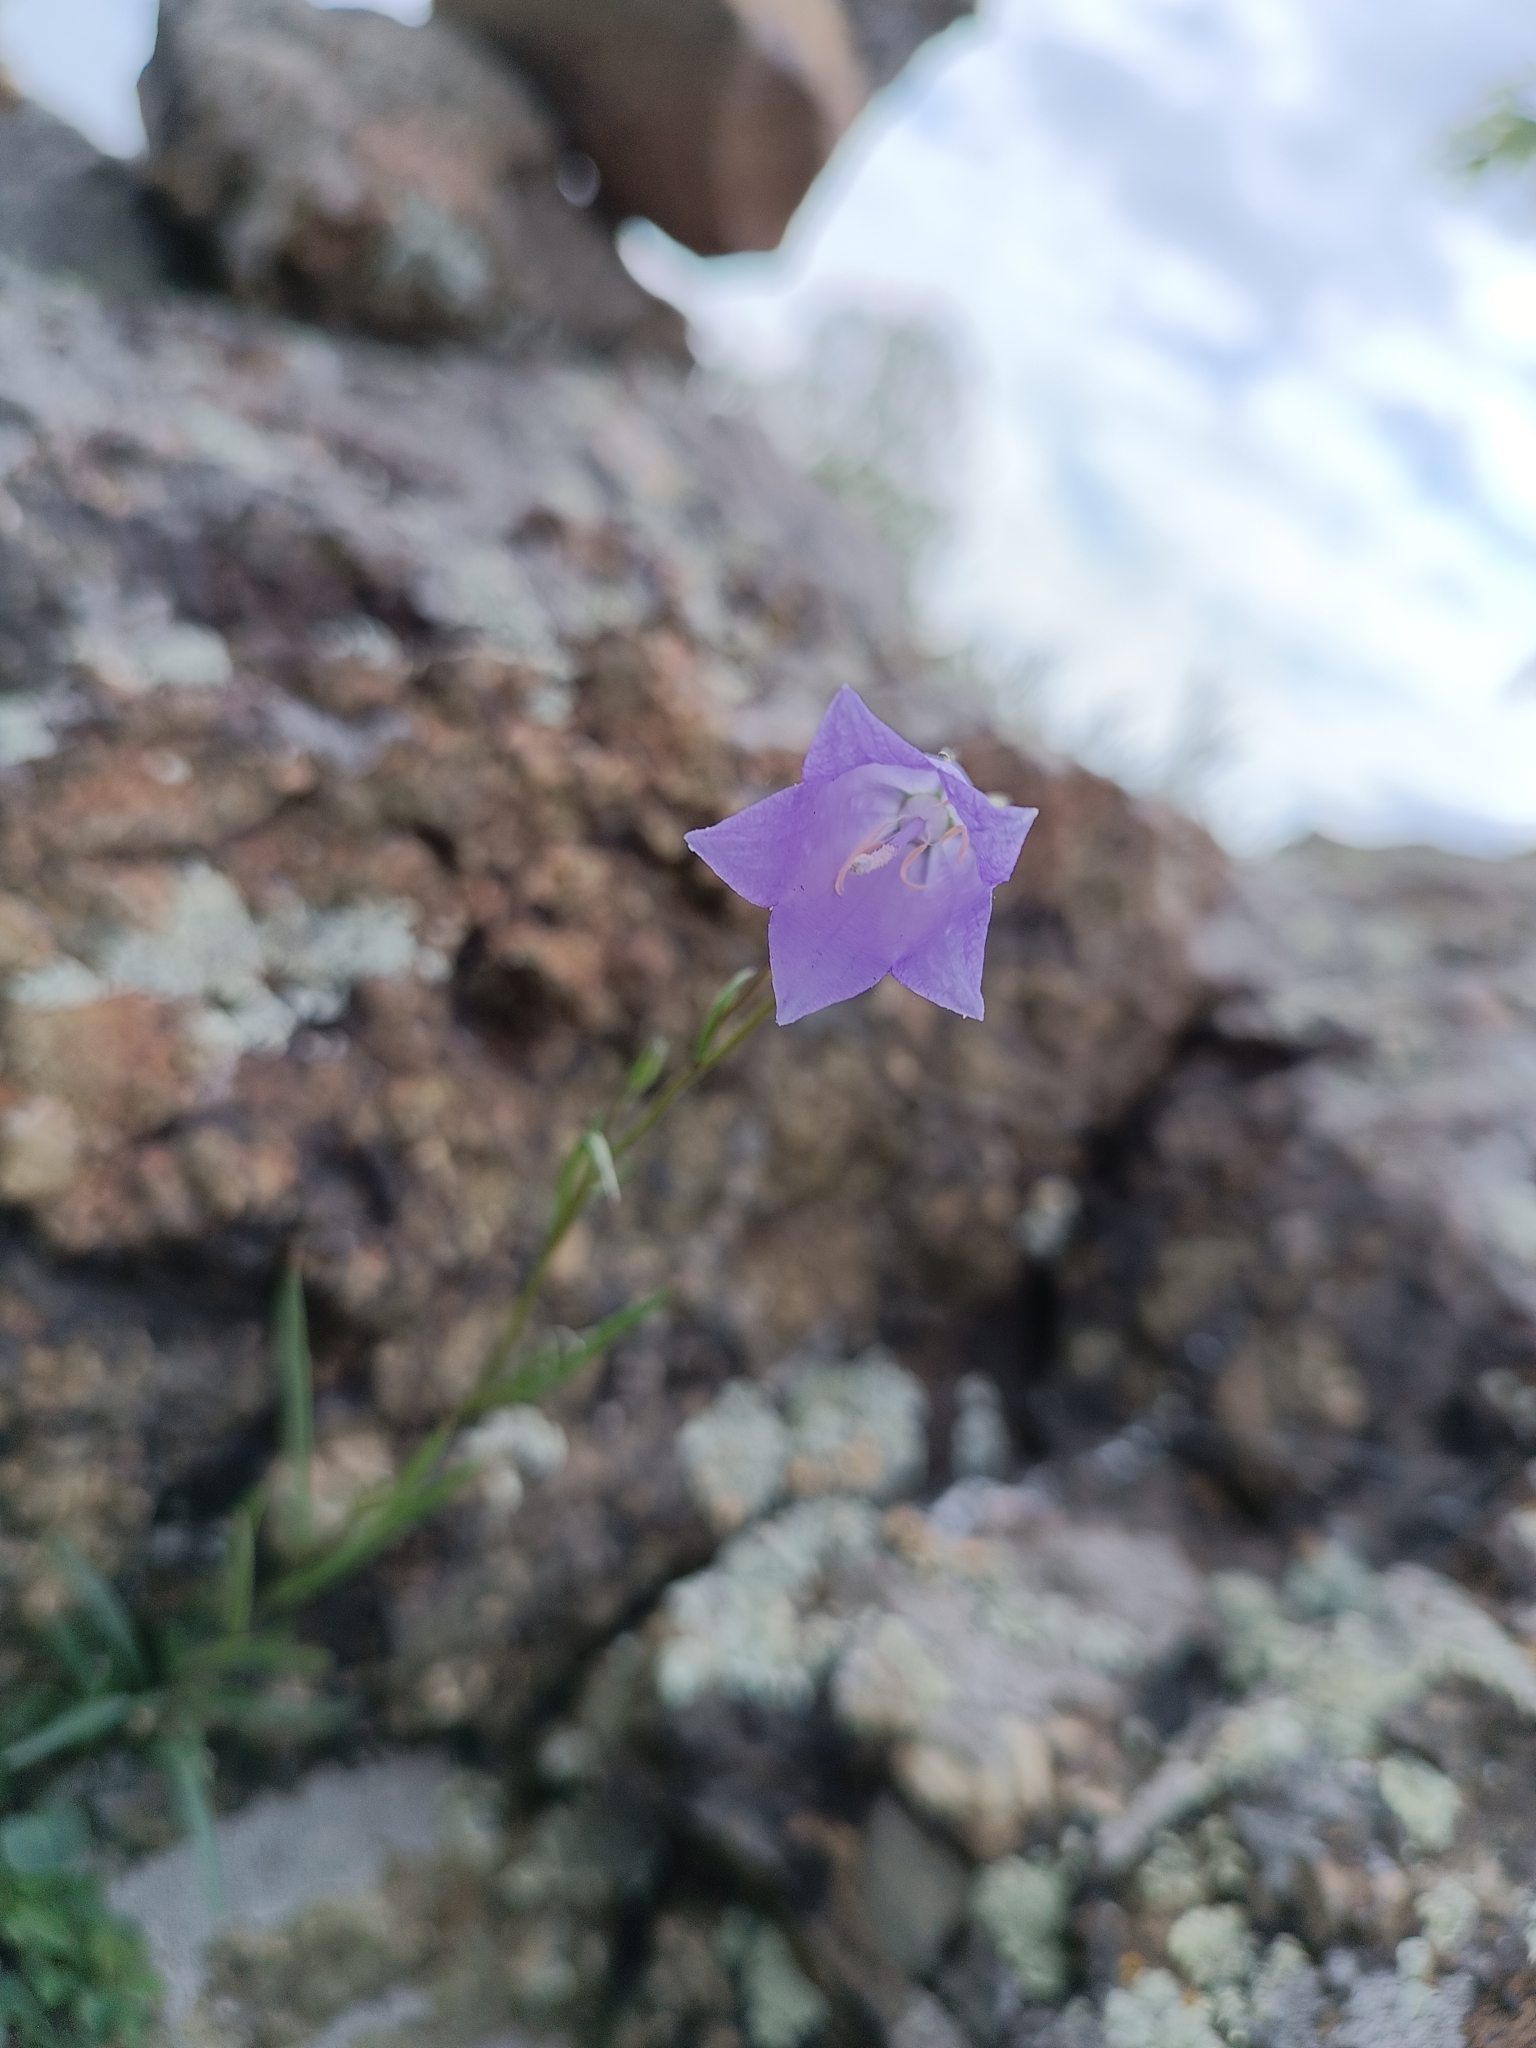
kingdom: Plantae
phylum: Tracheophyta
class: Magnoliopsida
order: Asterales
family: Campanulaceae
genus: Campanula
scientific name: Campanula rotundifolia
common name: Harebell
